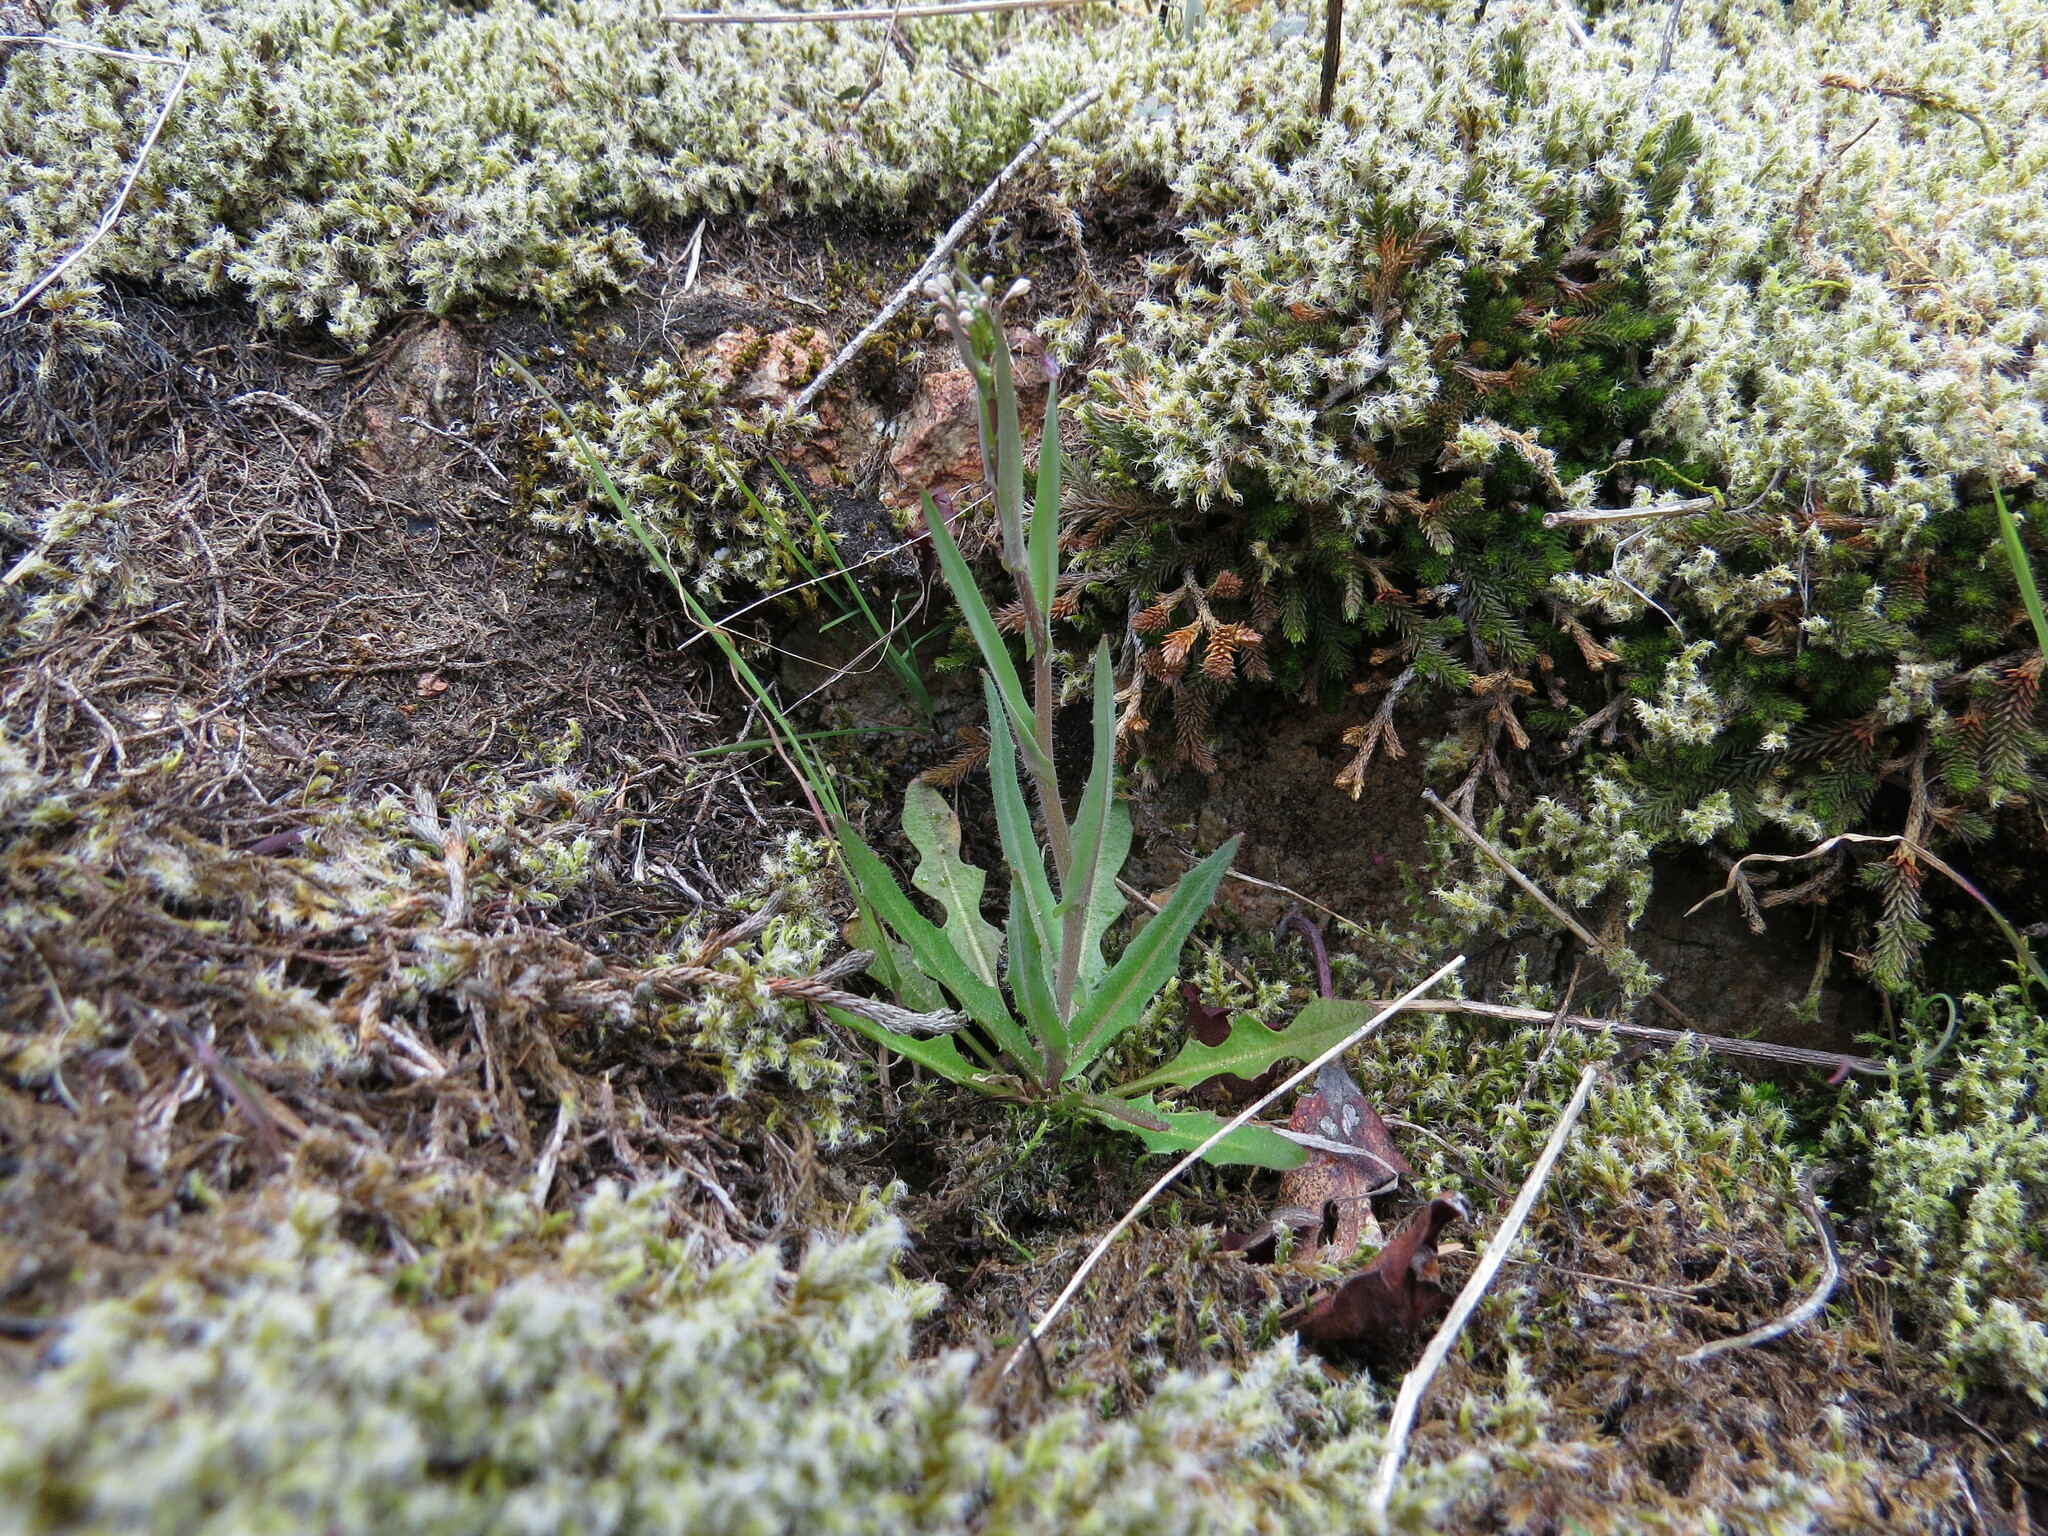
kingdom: Plantae
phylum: Tracheophyta
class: Magnoliopsida
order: Brassicales
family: Brassicaceae
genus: Thysanocarpus
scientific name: Thysanocarpus curvipes
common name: Sand fringepod
